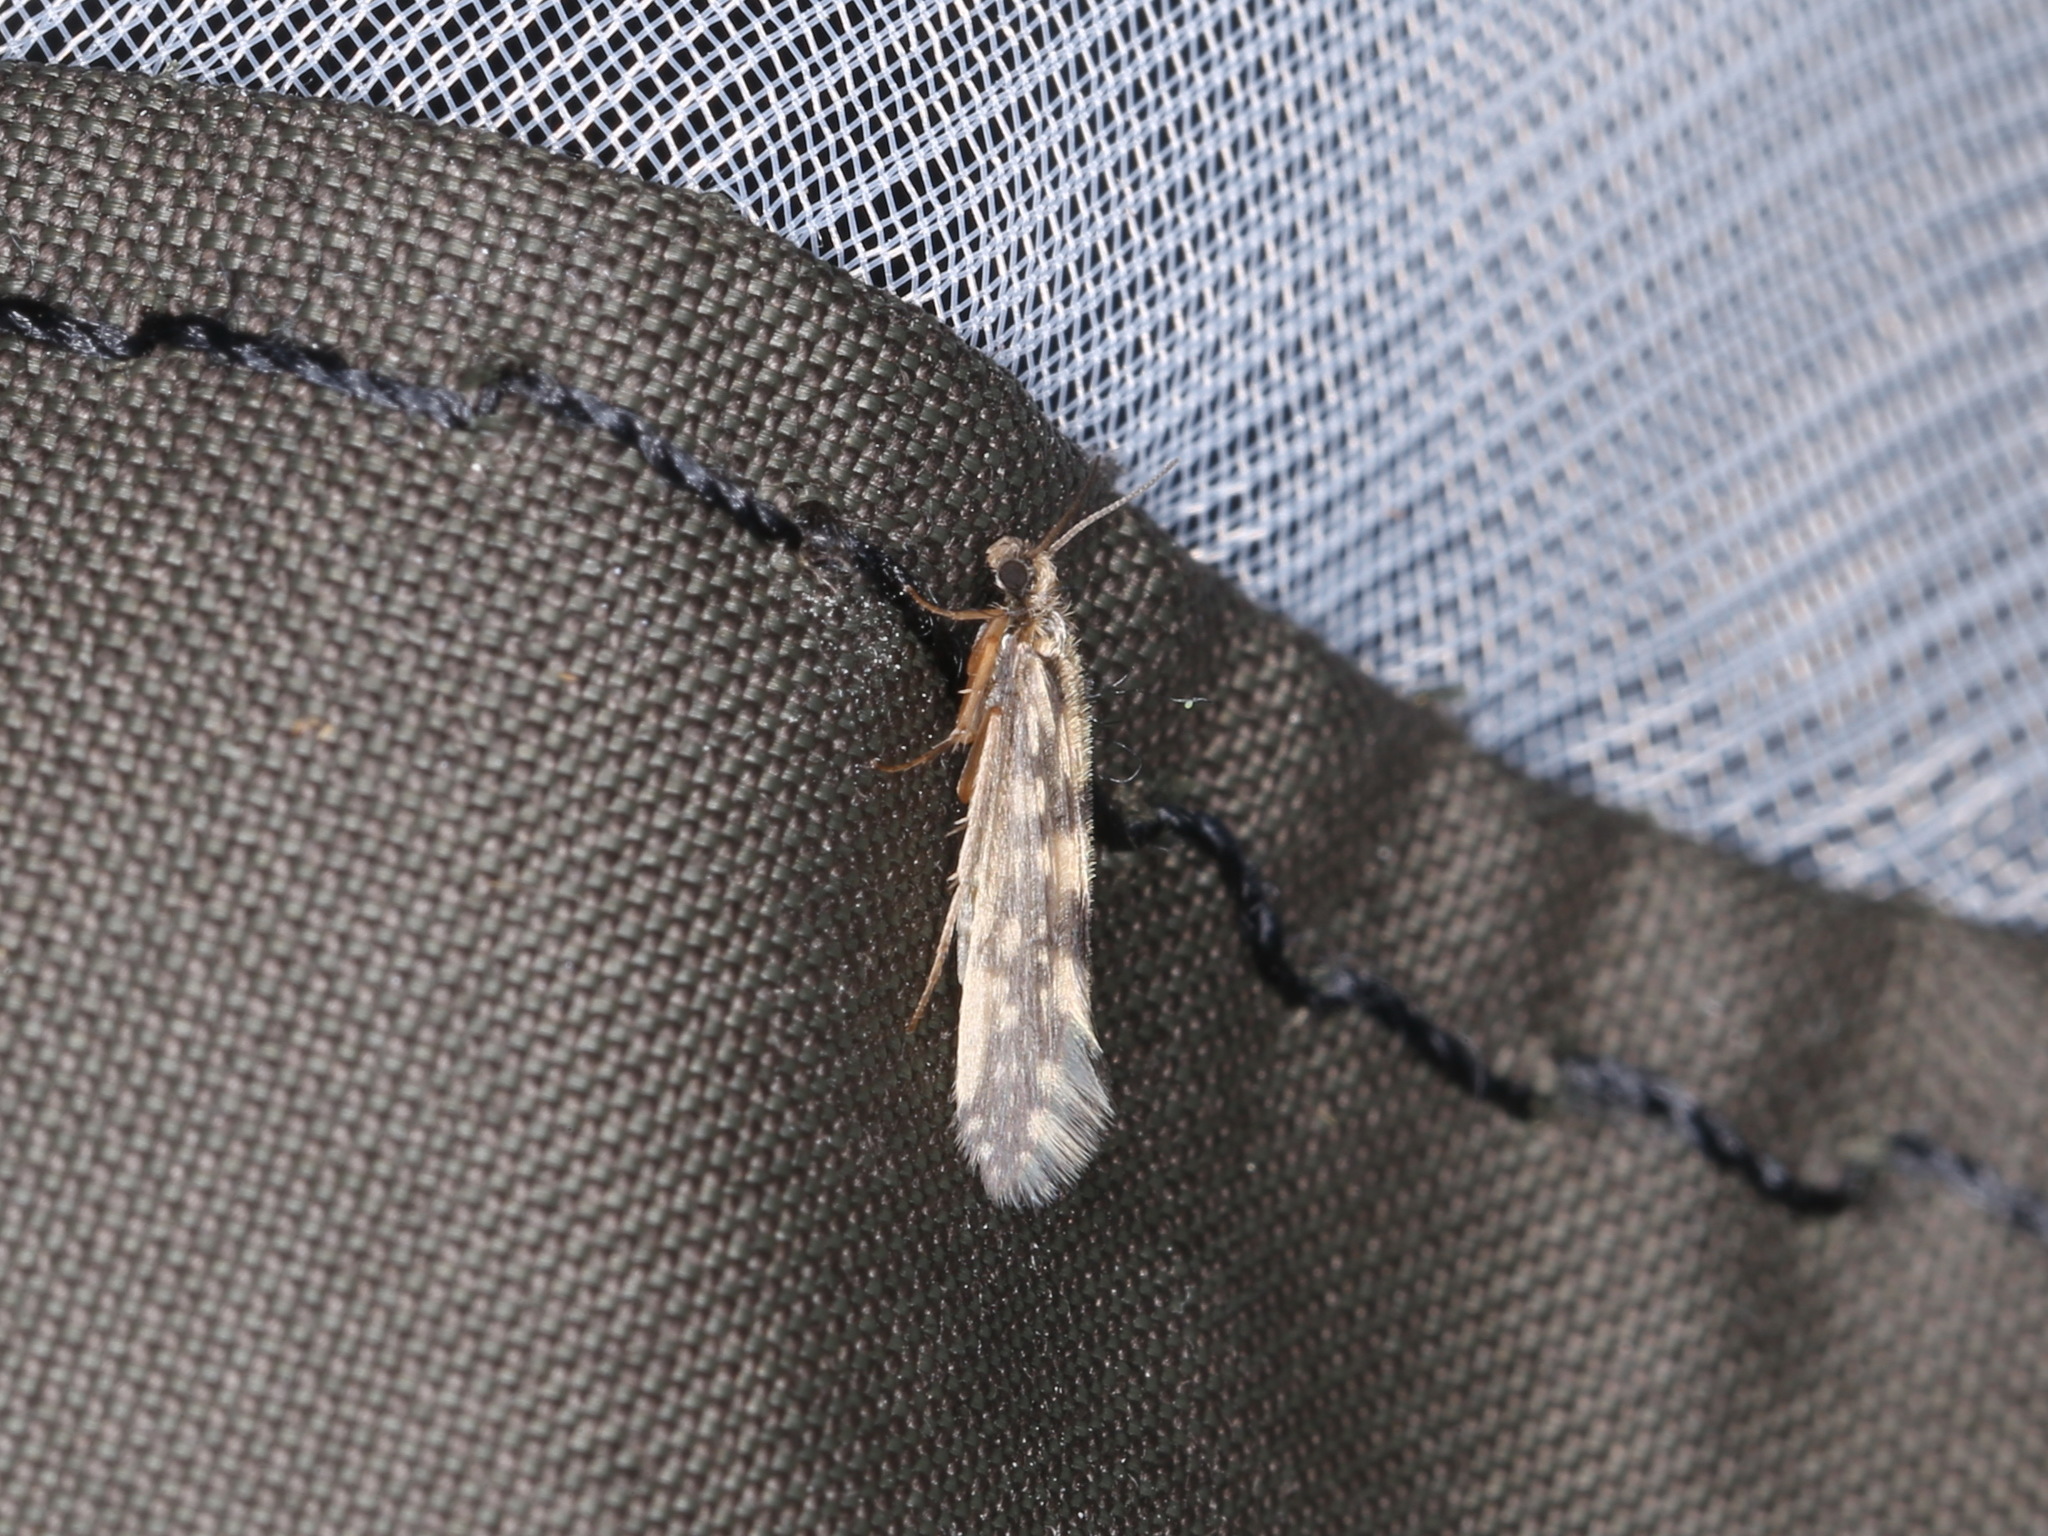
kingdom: Animalia
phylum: Arthropoda
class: Insecta
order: Trichoptera
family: Hydroptilidae
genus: Agraylea
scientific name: Agraylea multipunctata
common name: Salt and pepper microcaddisfly
